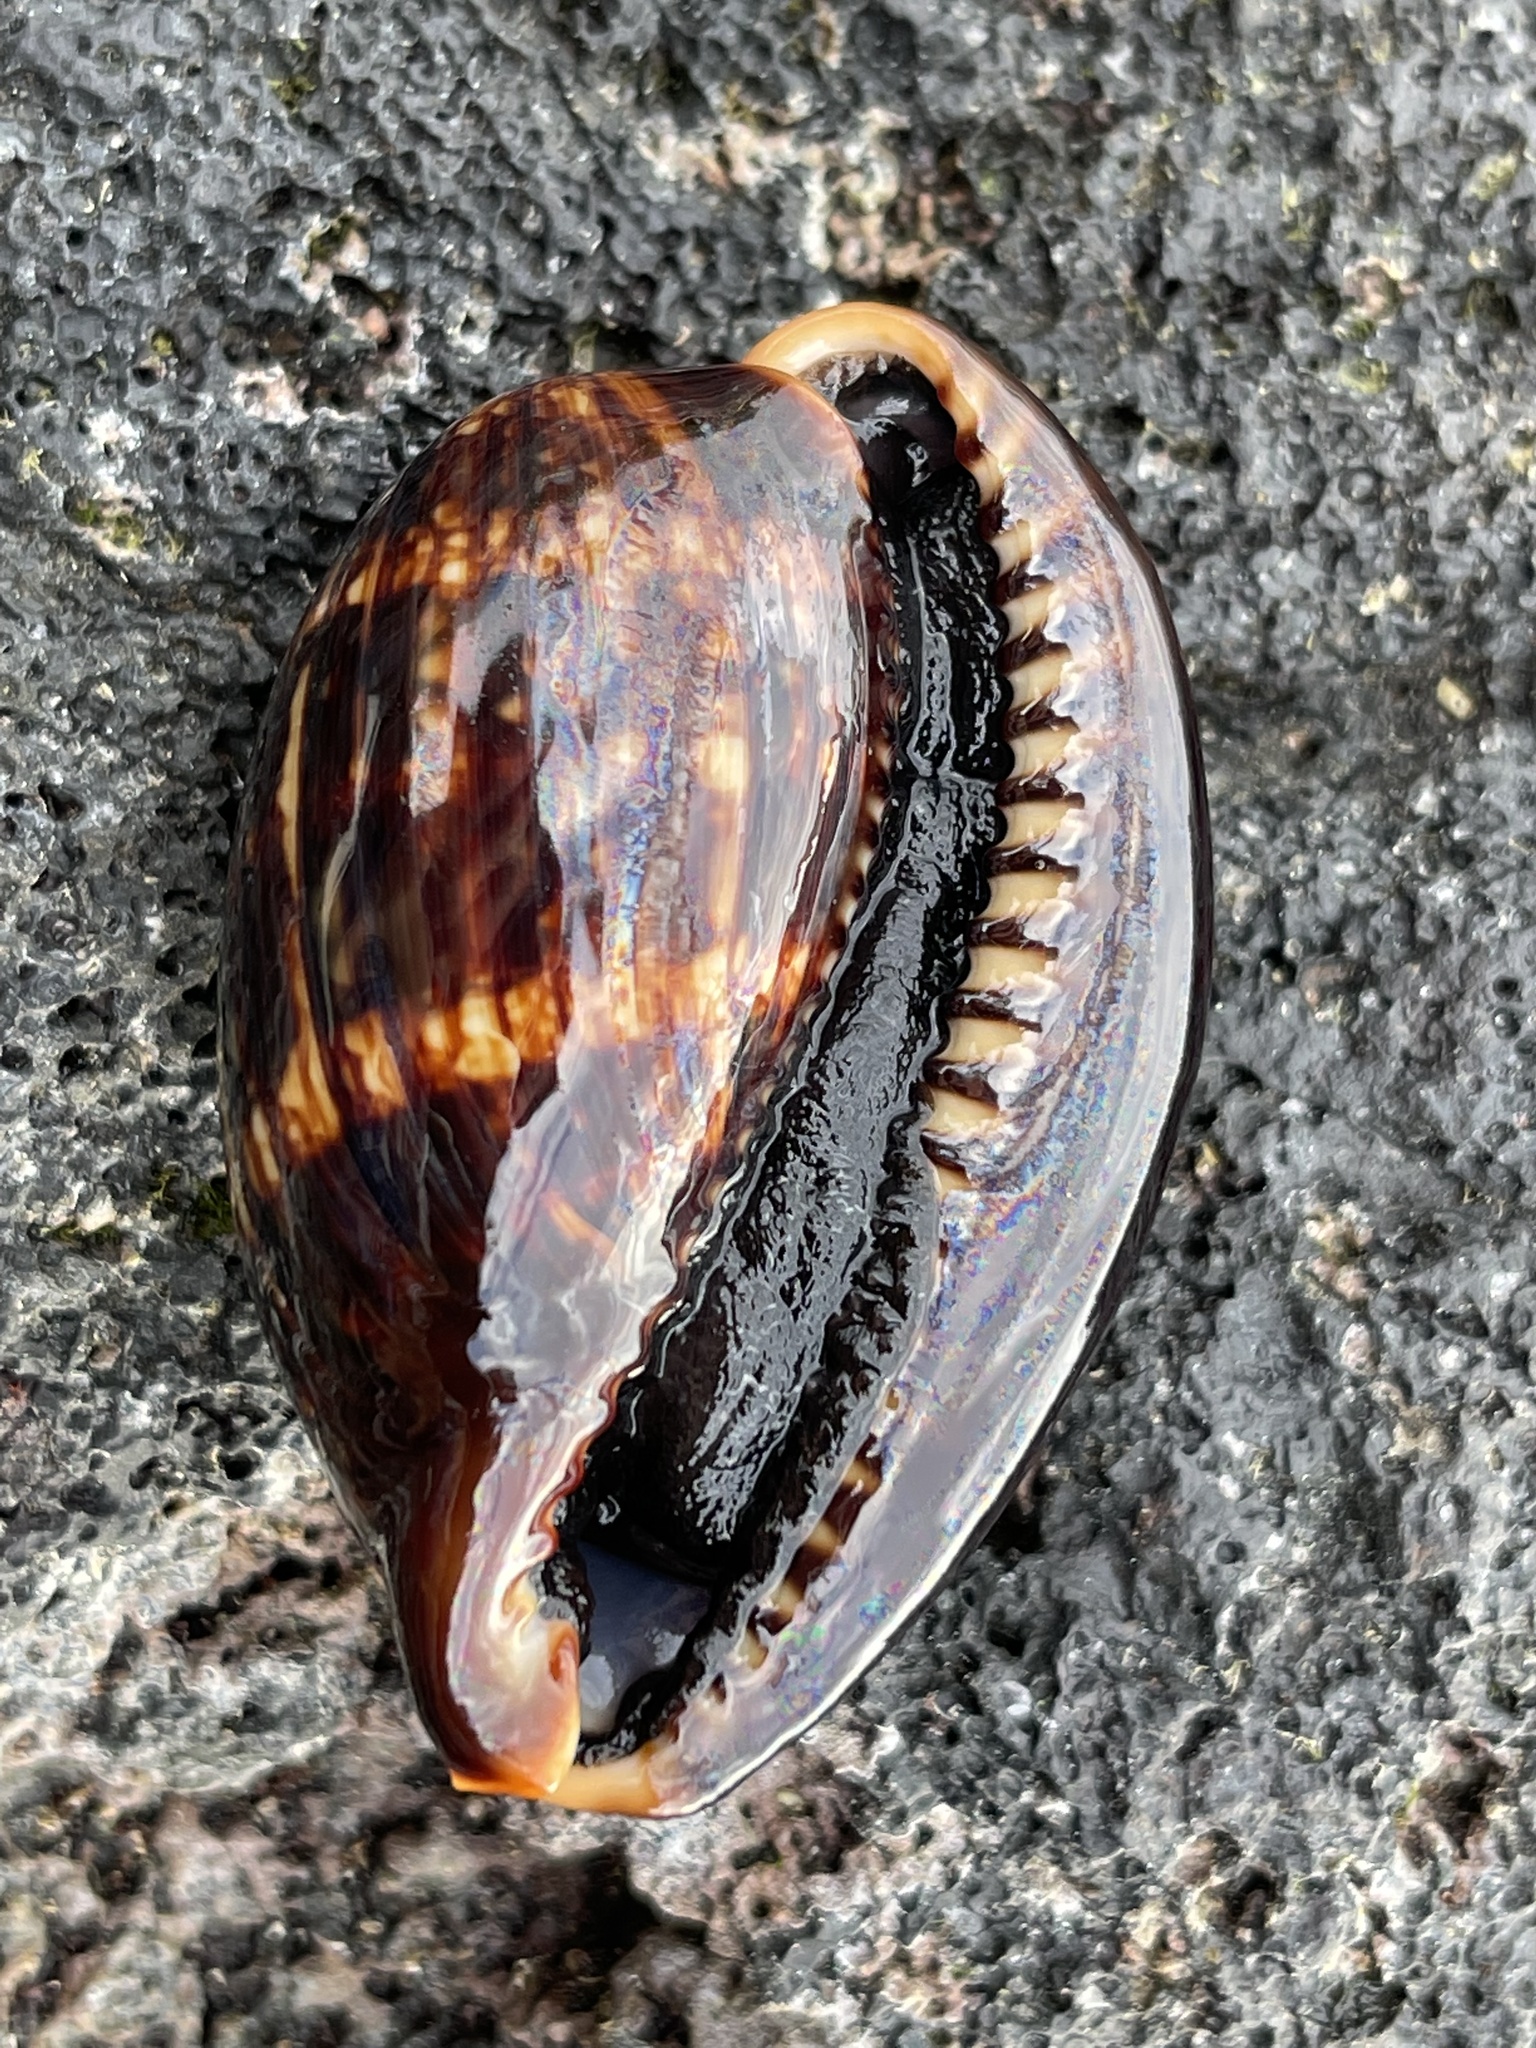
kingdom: Animalia
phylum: Mollusca
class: Gastropoda
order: Littorinimorpha
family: Cypraeidae
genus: Mauritia
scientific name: Mauritia mauritiana
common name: Hump-backed cowrie
